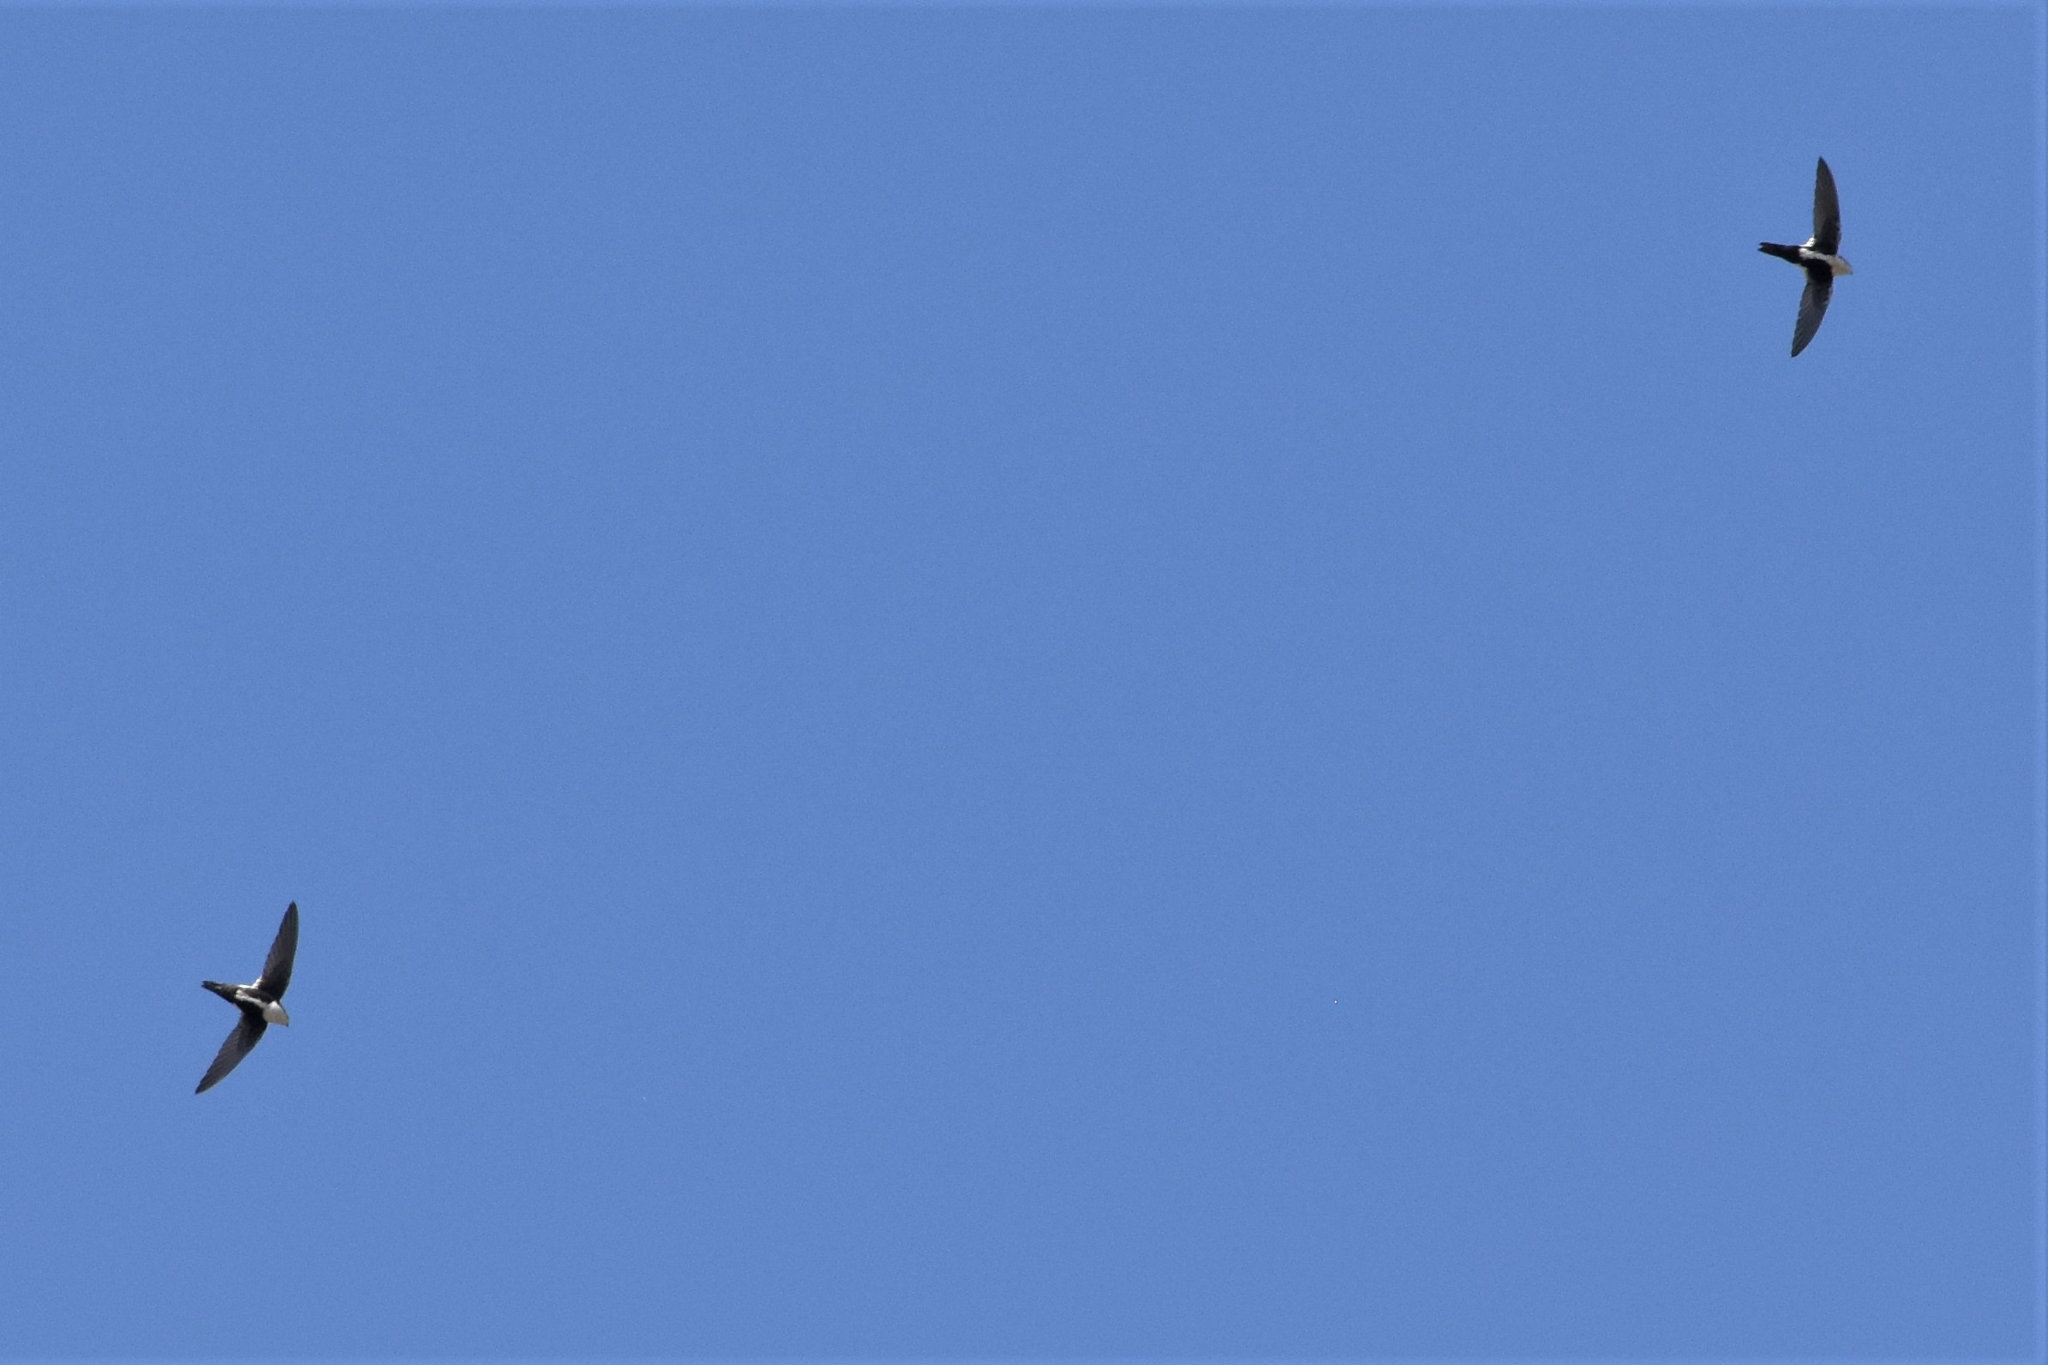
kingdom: Animalia
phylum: Chordata
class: Aves
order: Apodiformes
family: Apodidae
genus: Aeronautes
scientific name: Aeronautes saxatalis
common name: White-throated swift
